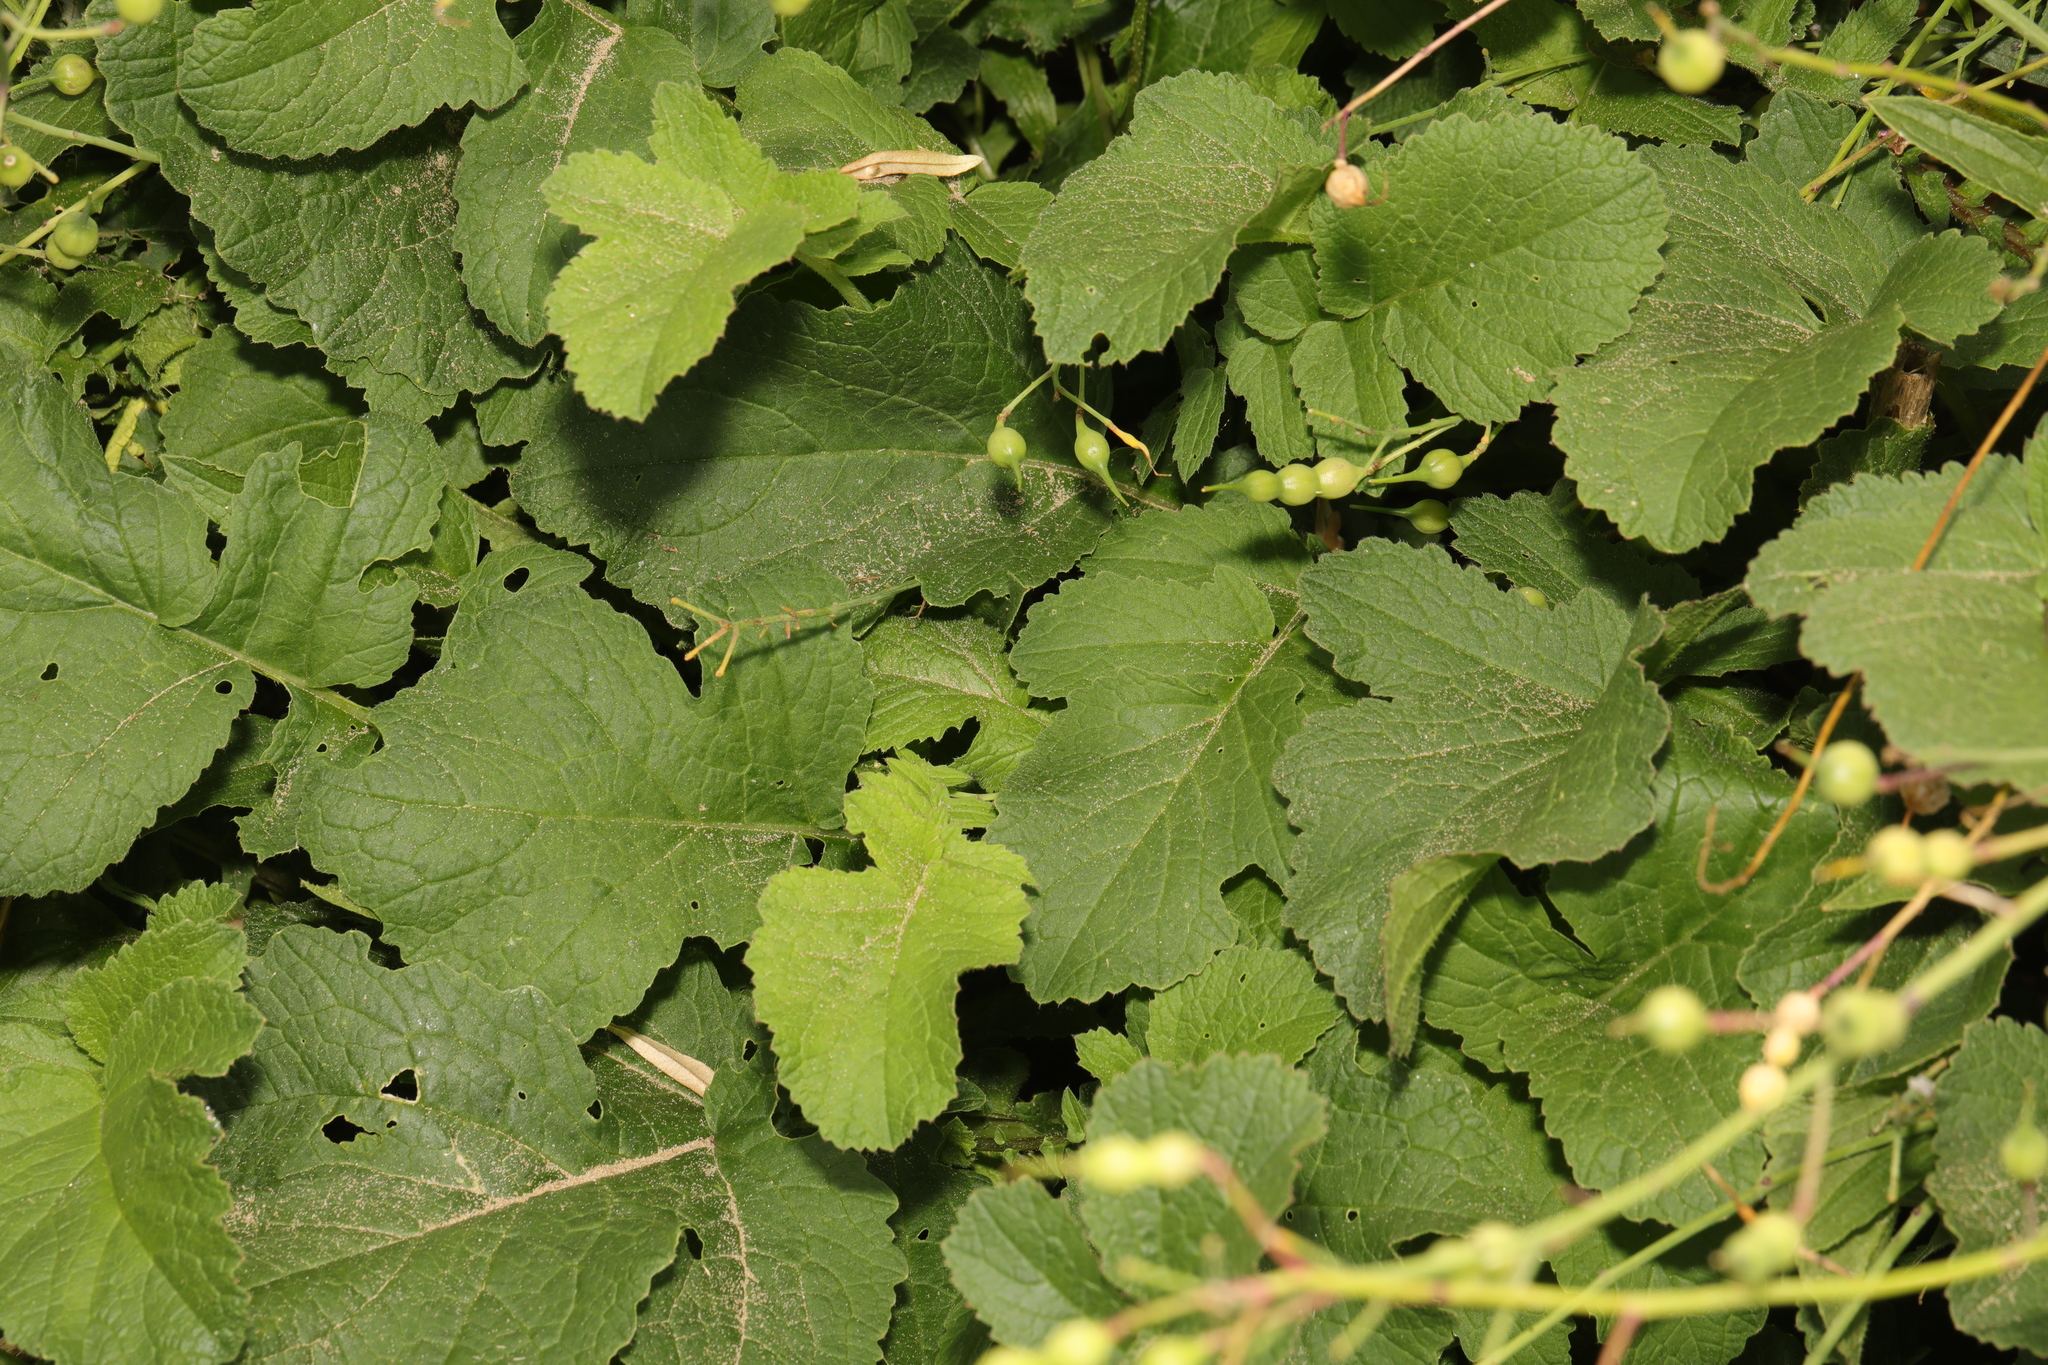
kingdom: Plantae
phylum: Tracheophyta
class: Magnoliopsida
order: Brassicales
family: Brassicaceae
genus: Raphanus
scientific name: Raphanus raphanistrum
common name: Wild radish
